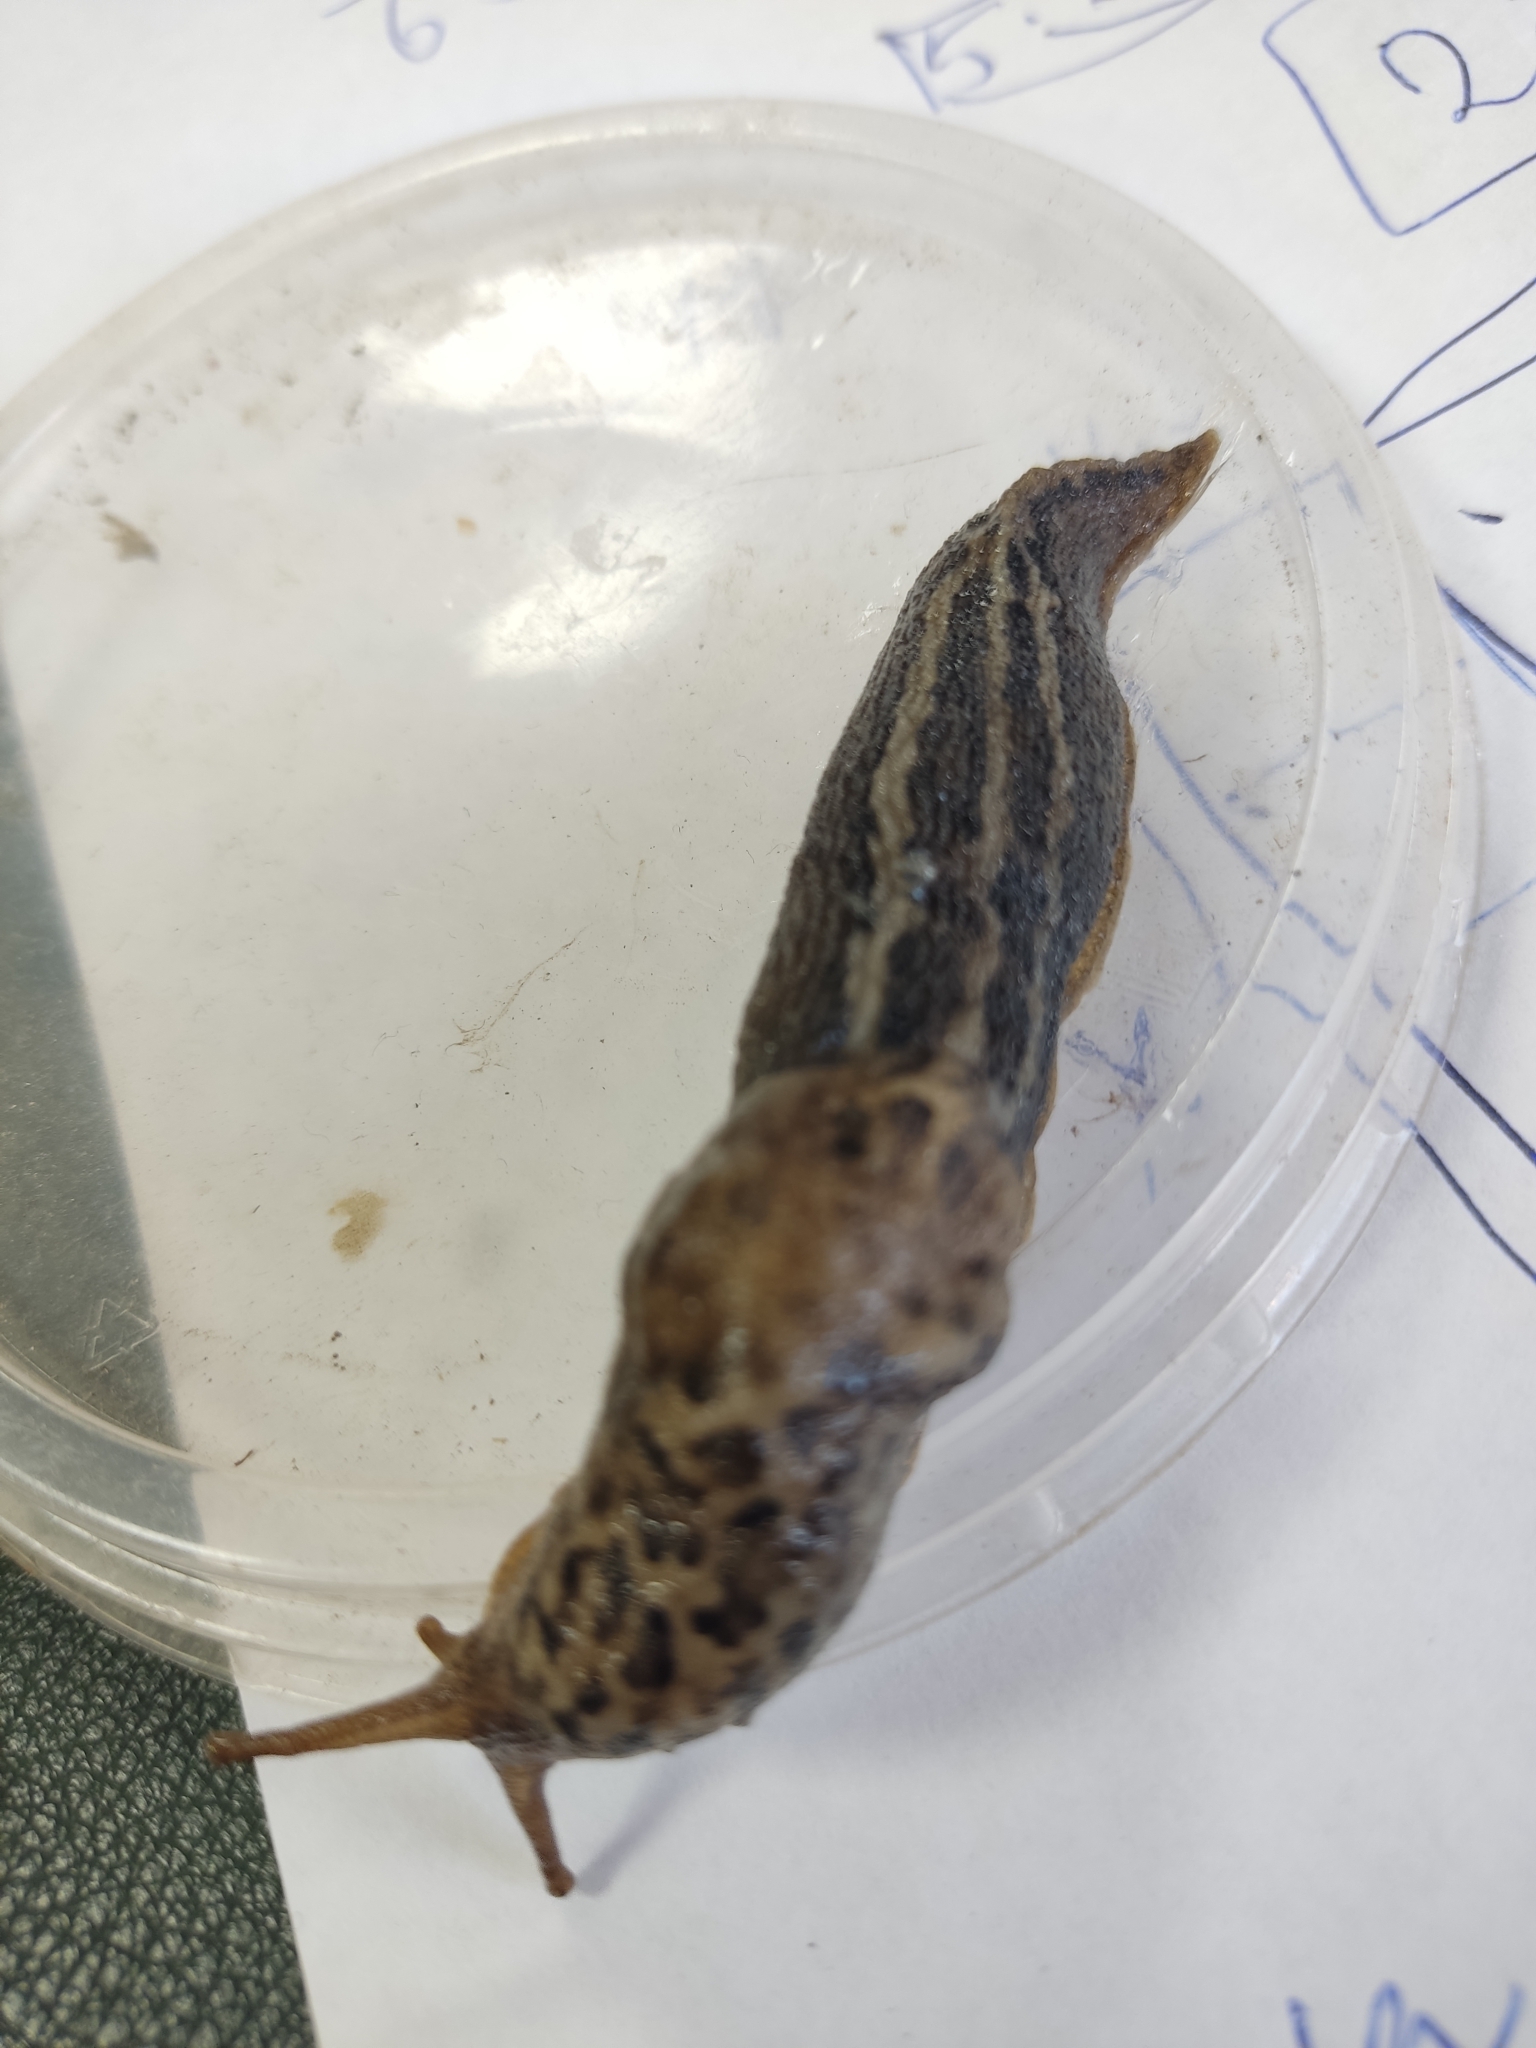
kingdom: Animalia
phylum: Mollusca
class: Gastropoda
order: Stylommatophora
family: Limacidae
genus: Limax
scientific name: Limax maximus
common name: Great grey slug
